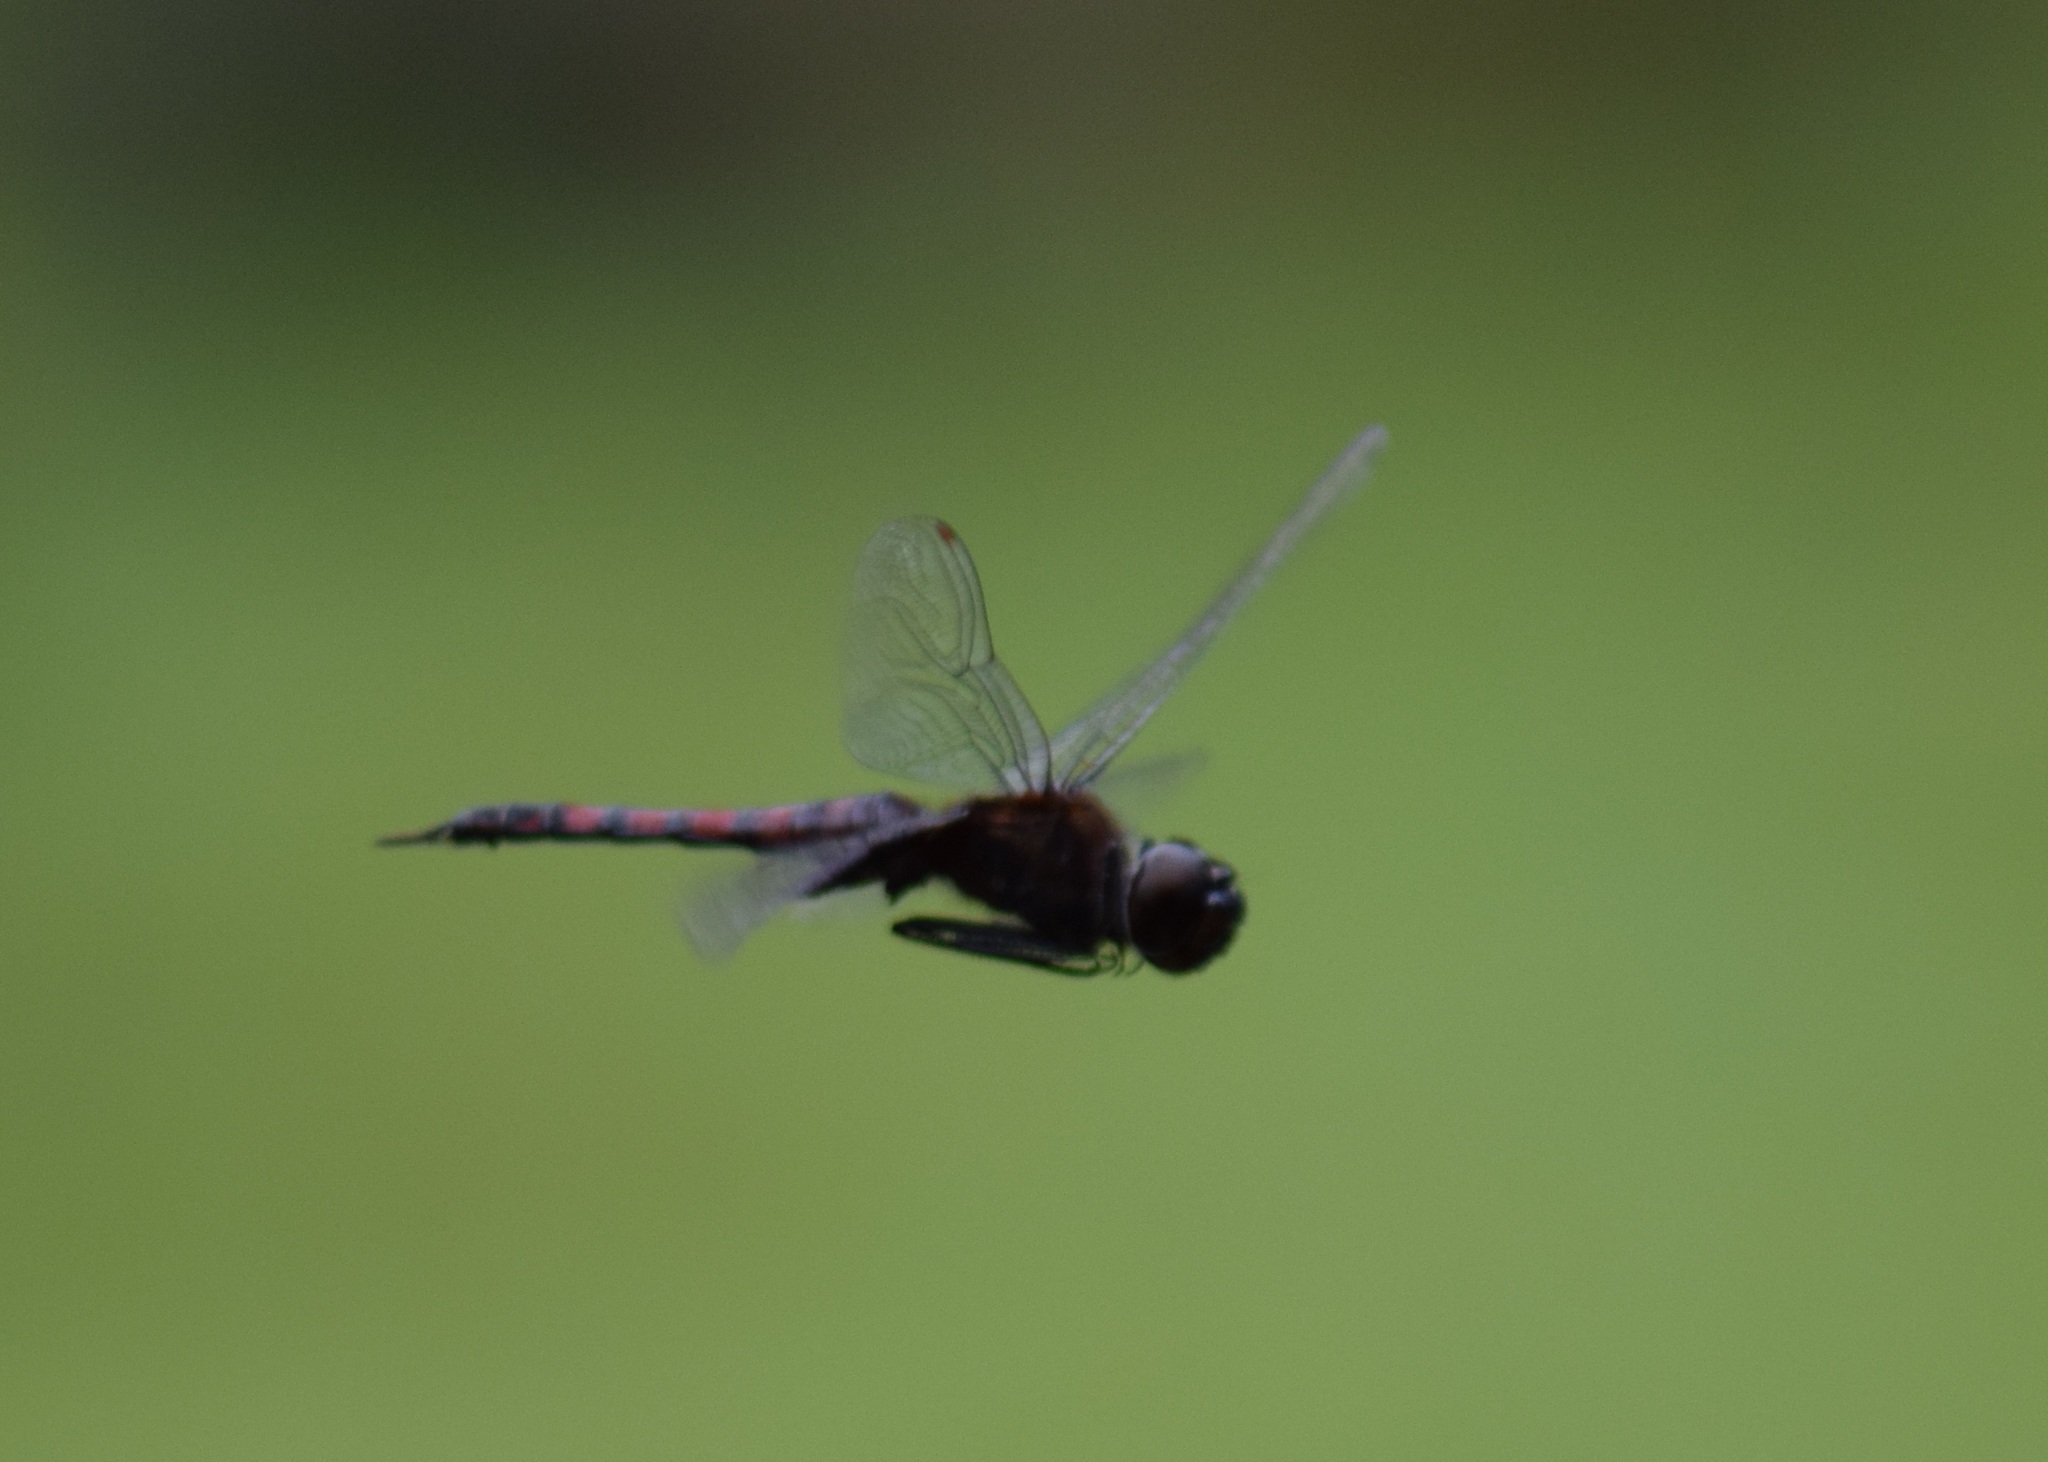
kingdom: Animalia
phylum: Arthropoda
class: Insecta
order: Odonata
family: Libellulidae
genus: Tramea
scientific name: Tramea limbata
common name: Ferruginous glider
